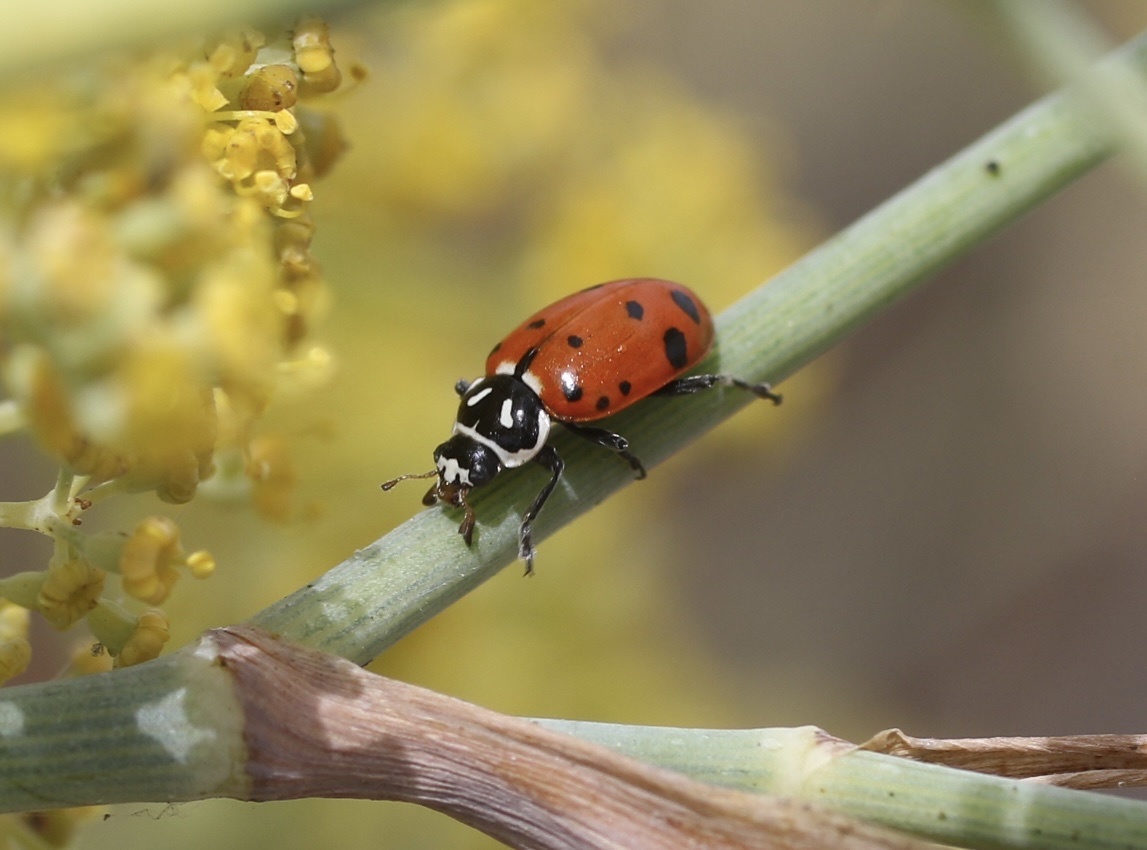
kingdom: Animalia
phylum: Arthropoda
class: Insecta
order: Coleoptera
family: Coccinellidae
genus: Hippodamia
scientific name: Hippodamia convergens
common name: Convergent lady beetle
